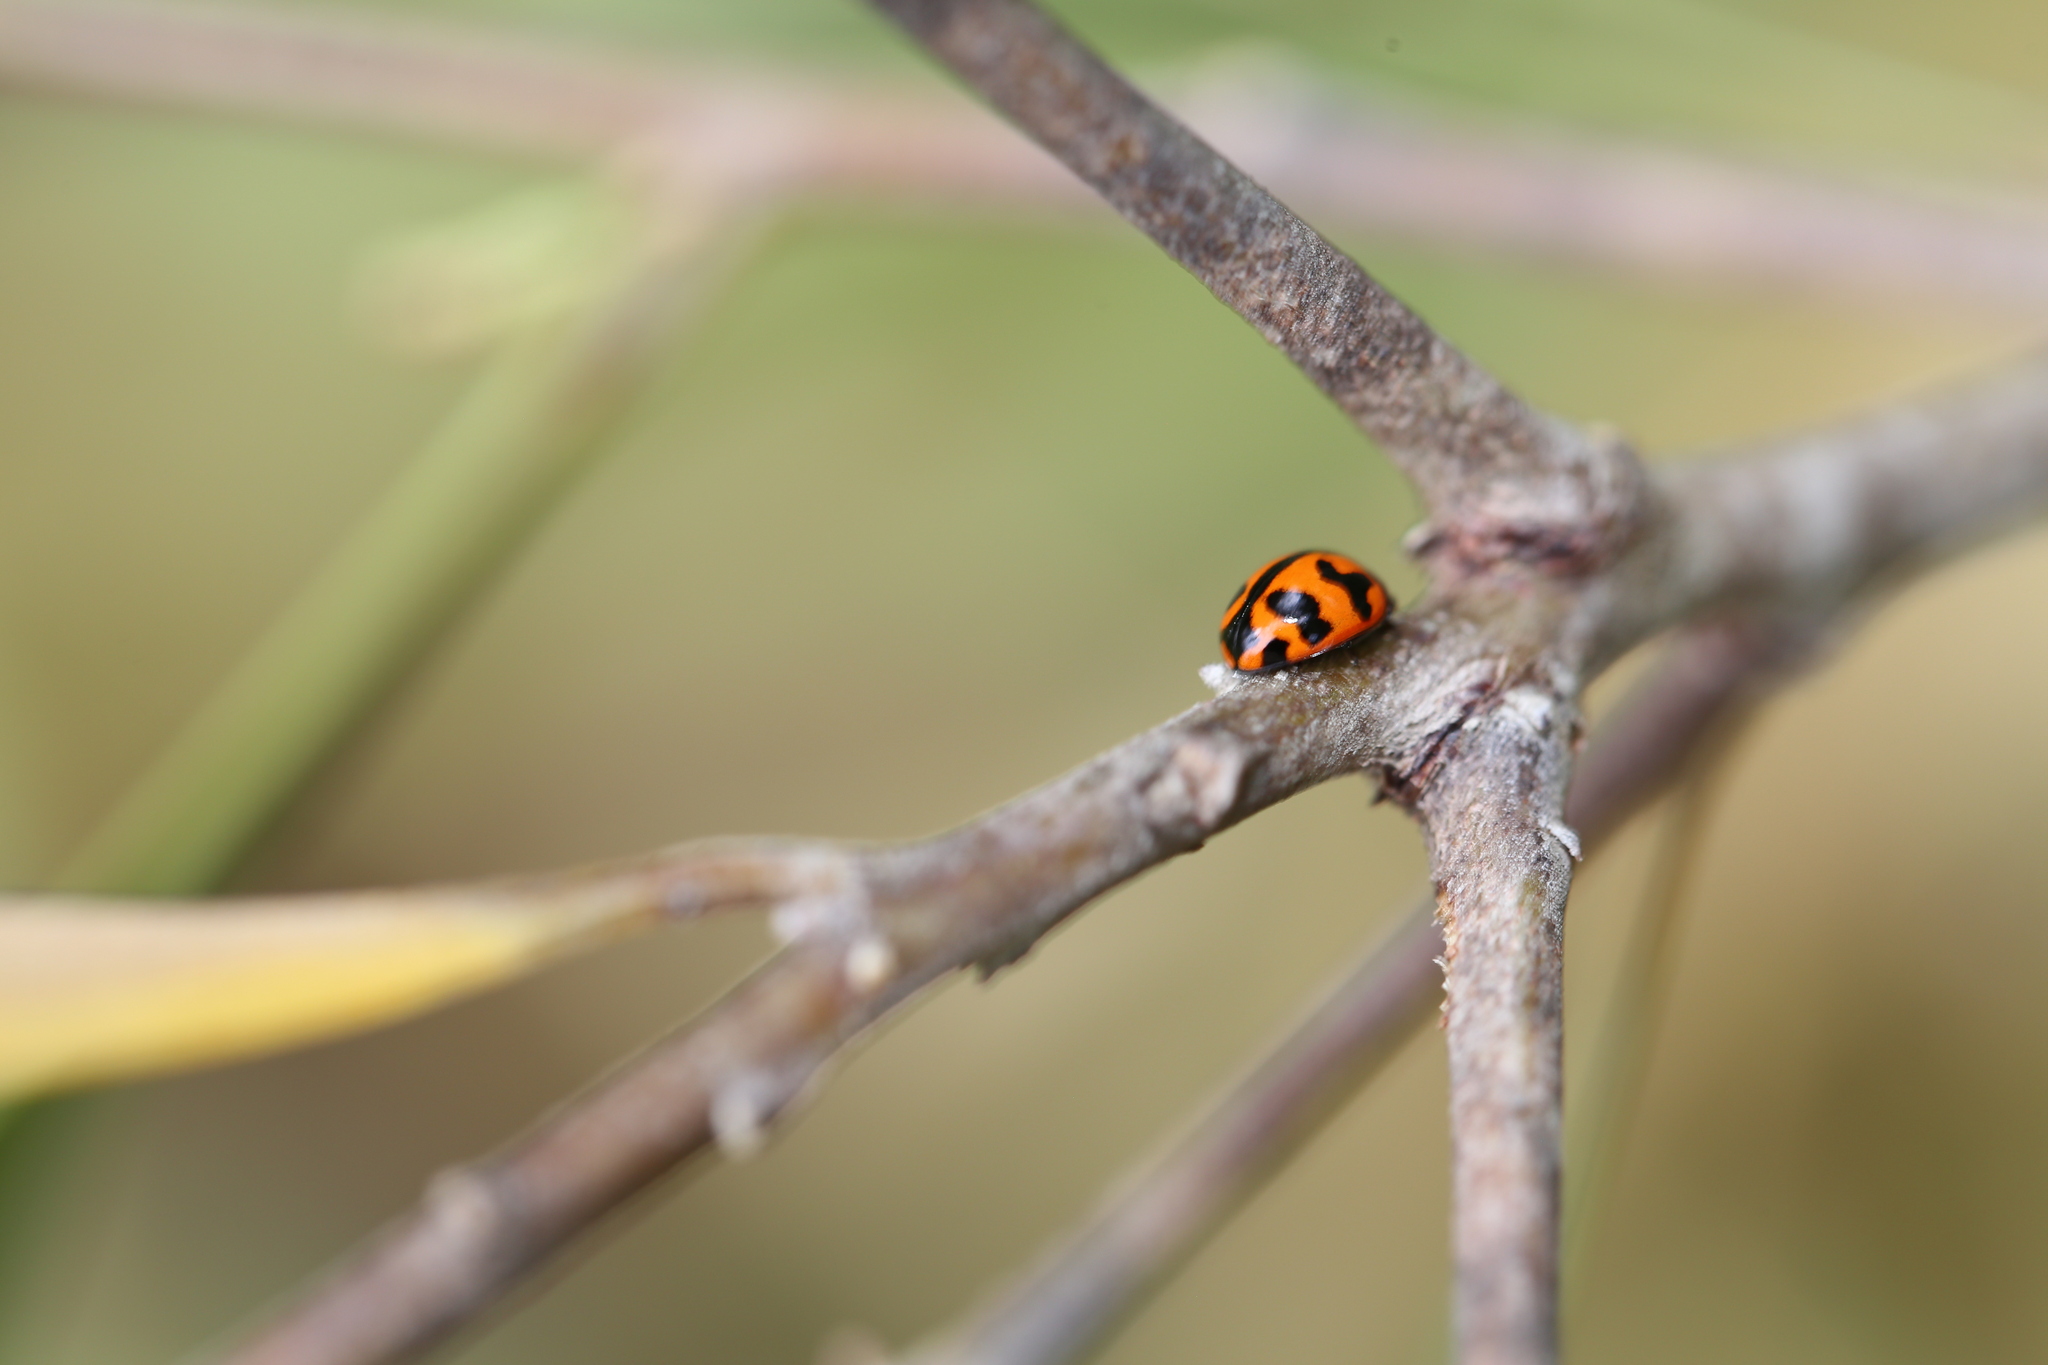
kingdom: Animalia
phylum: Arthropoda
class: Insecta
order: Coleoptera
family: Coccinellidae
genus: Coccinella
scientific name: Coccinella transversalis
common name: Transverse lady beetle
